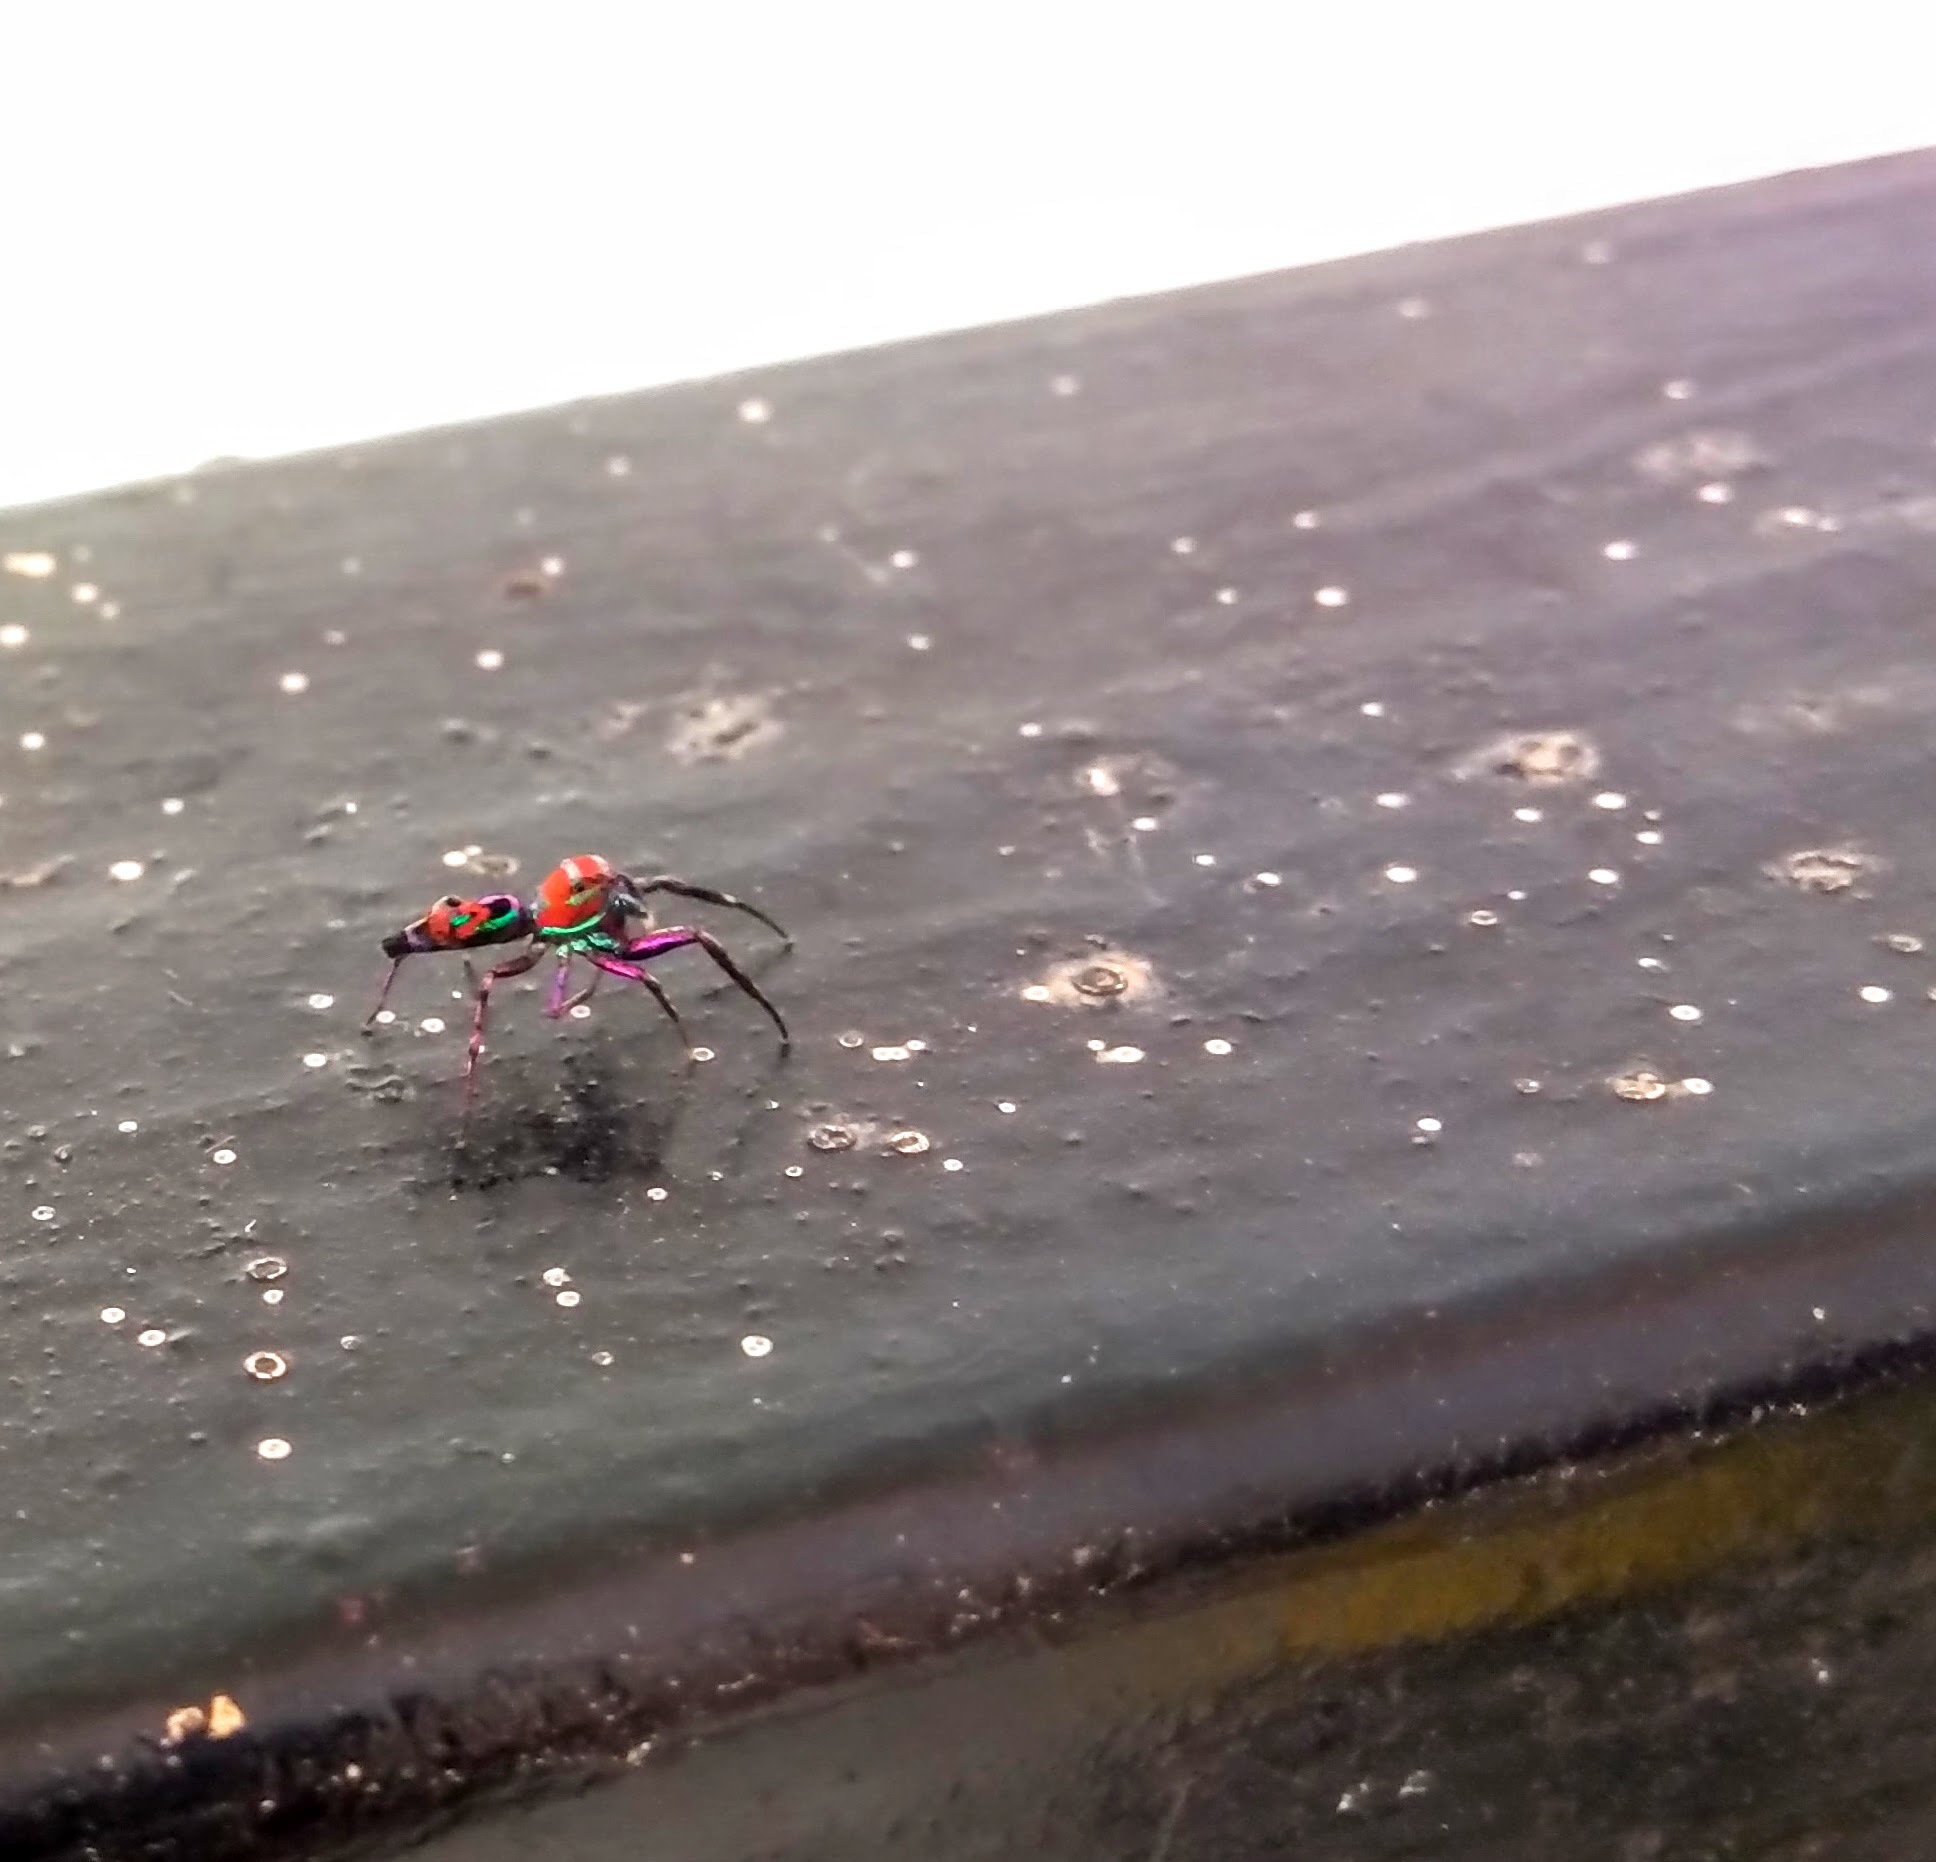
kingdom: Animalia
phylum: Arthropoda
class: Arachnida
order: Araneae
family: Salticidae
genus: Chrysilla
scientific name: Chrysilla volupe
